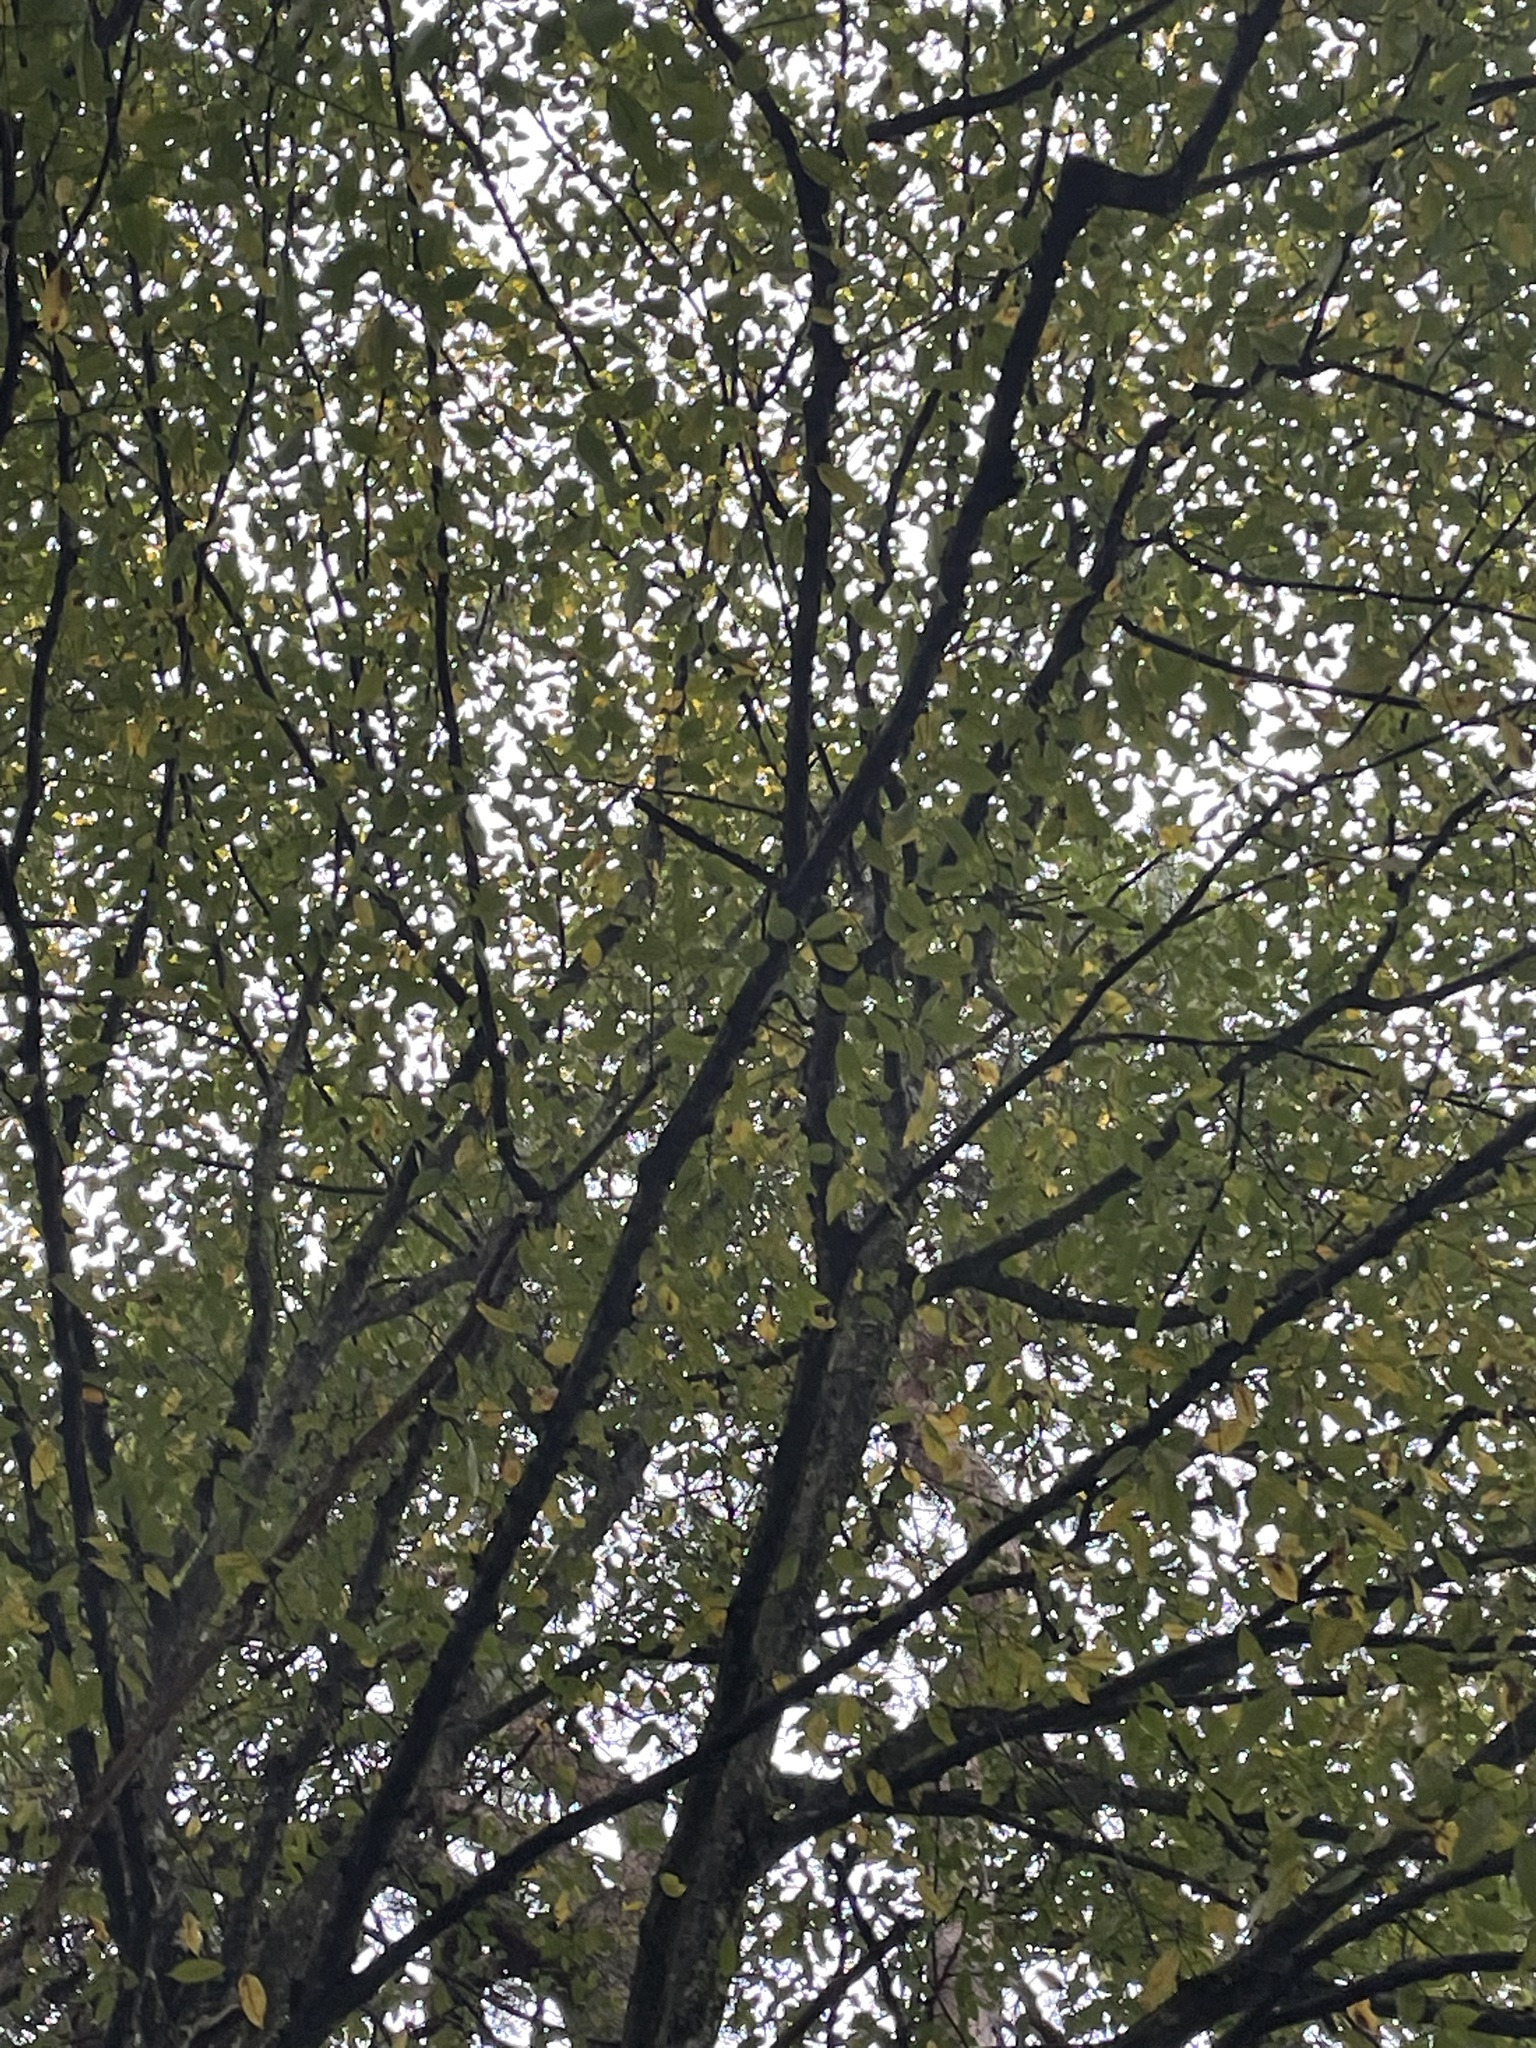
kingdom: Plantae
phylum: Tracheophyta
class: Magnoliopsida
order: Fagales
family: Betulaceae
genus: Carpinus
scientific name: Carpinus betulus
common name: Hornbeam
